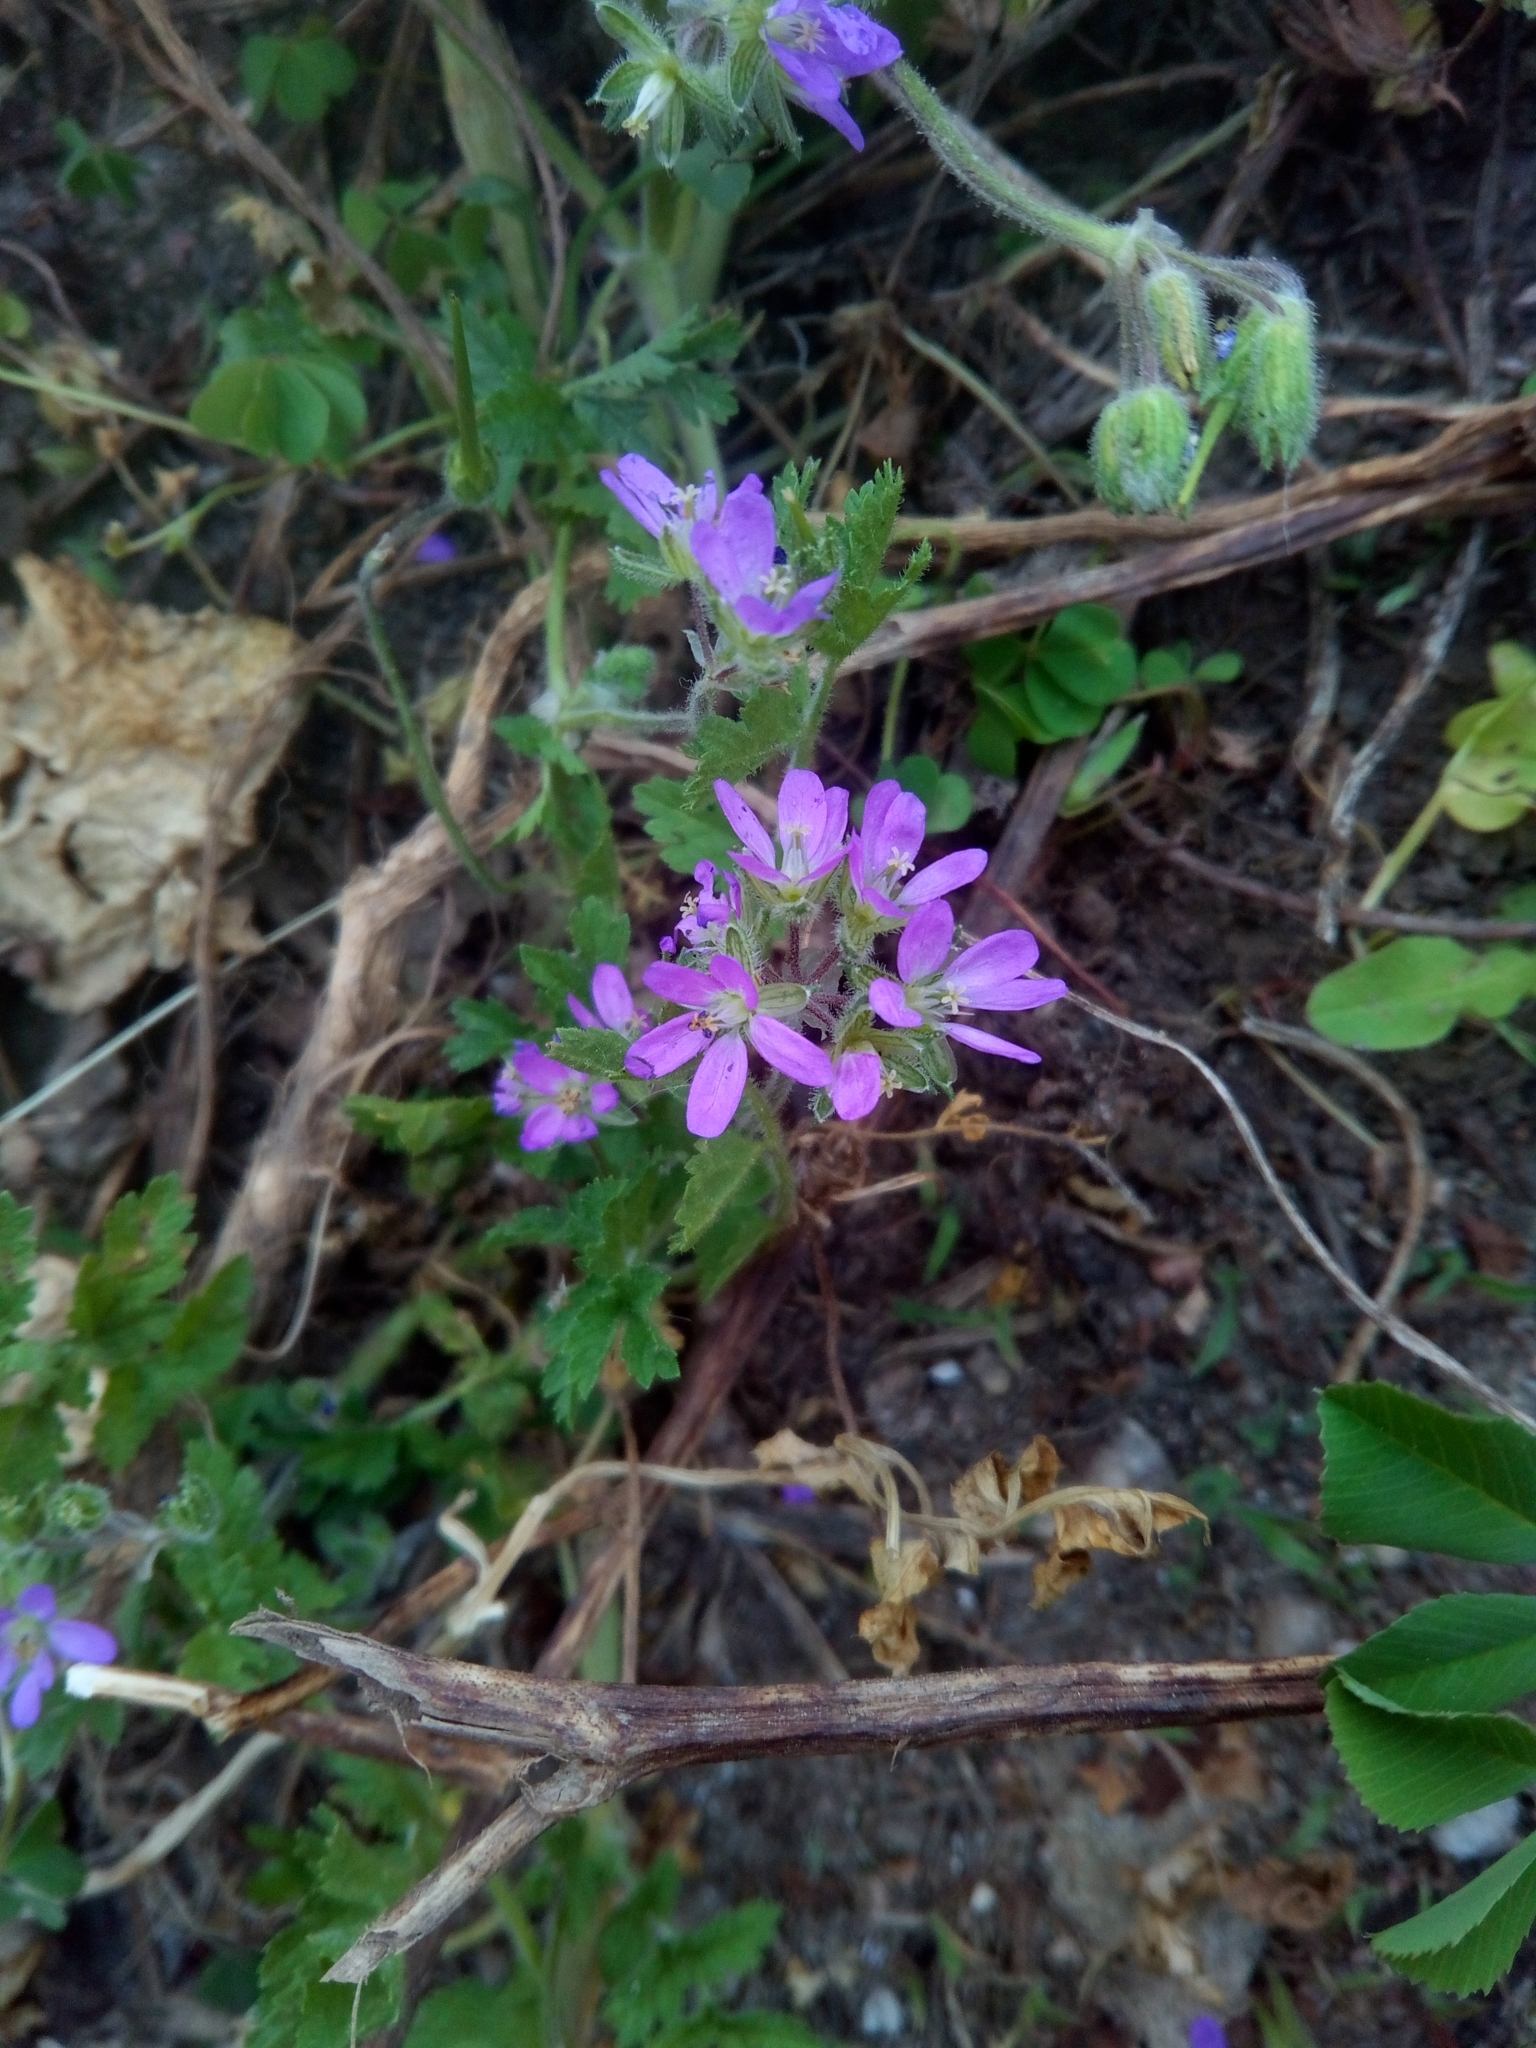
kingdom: Plantae
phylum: Tracheophyta
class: Magnoliopsida
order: Geraniales
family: Geraniaceae
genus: Erodium
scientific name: Erodium moschatum
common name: Musk stork's-bill
